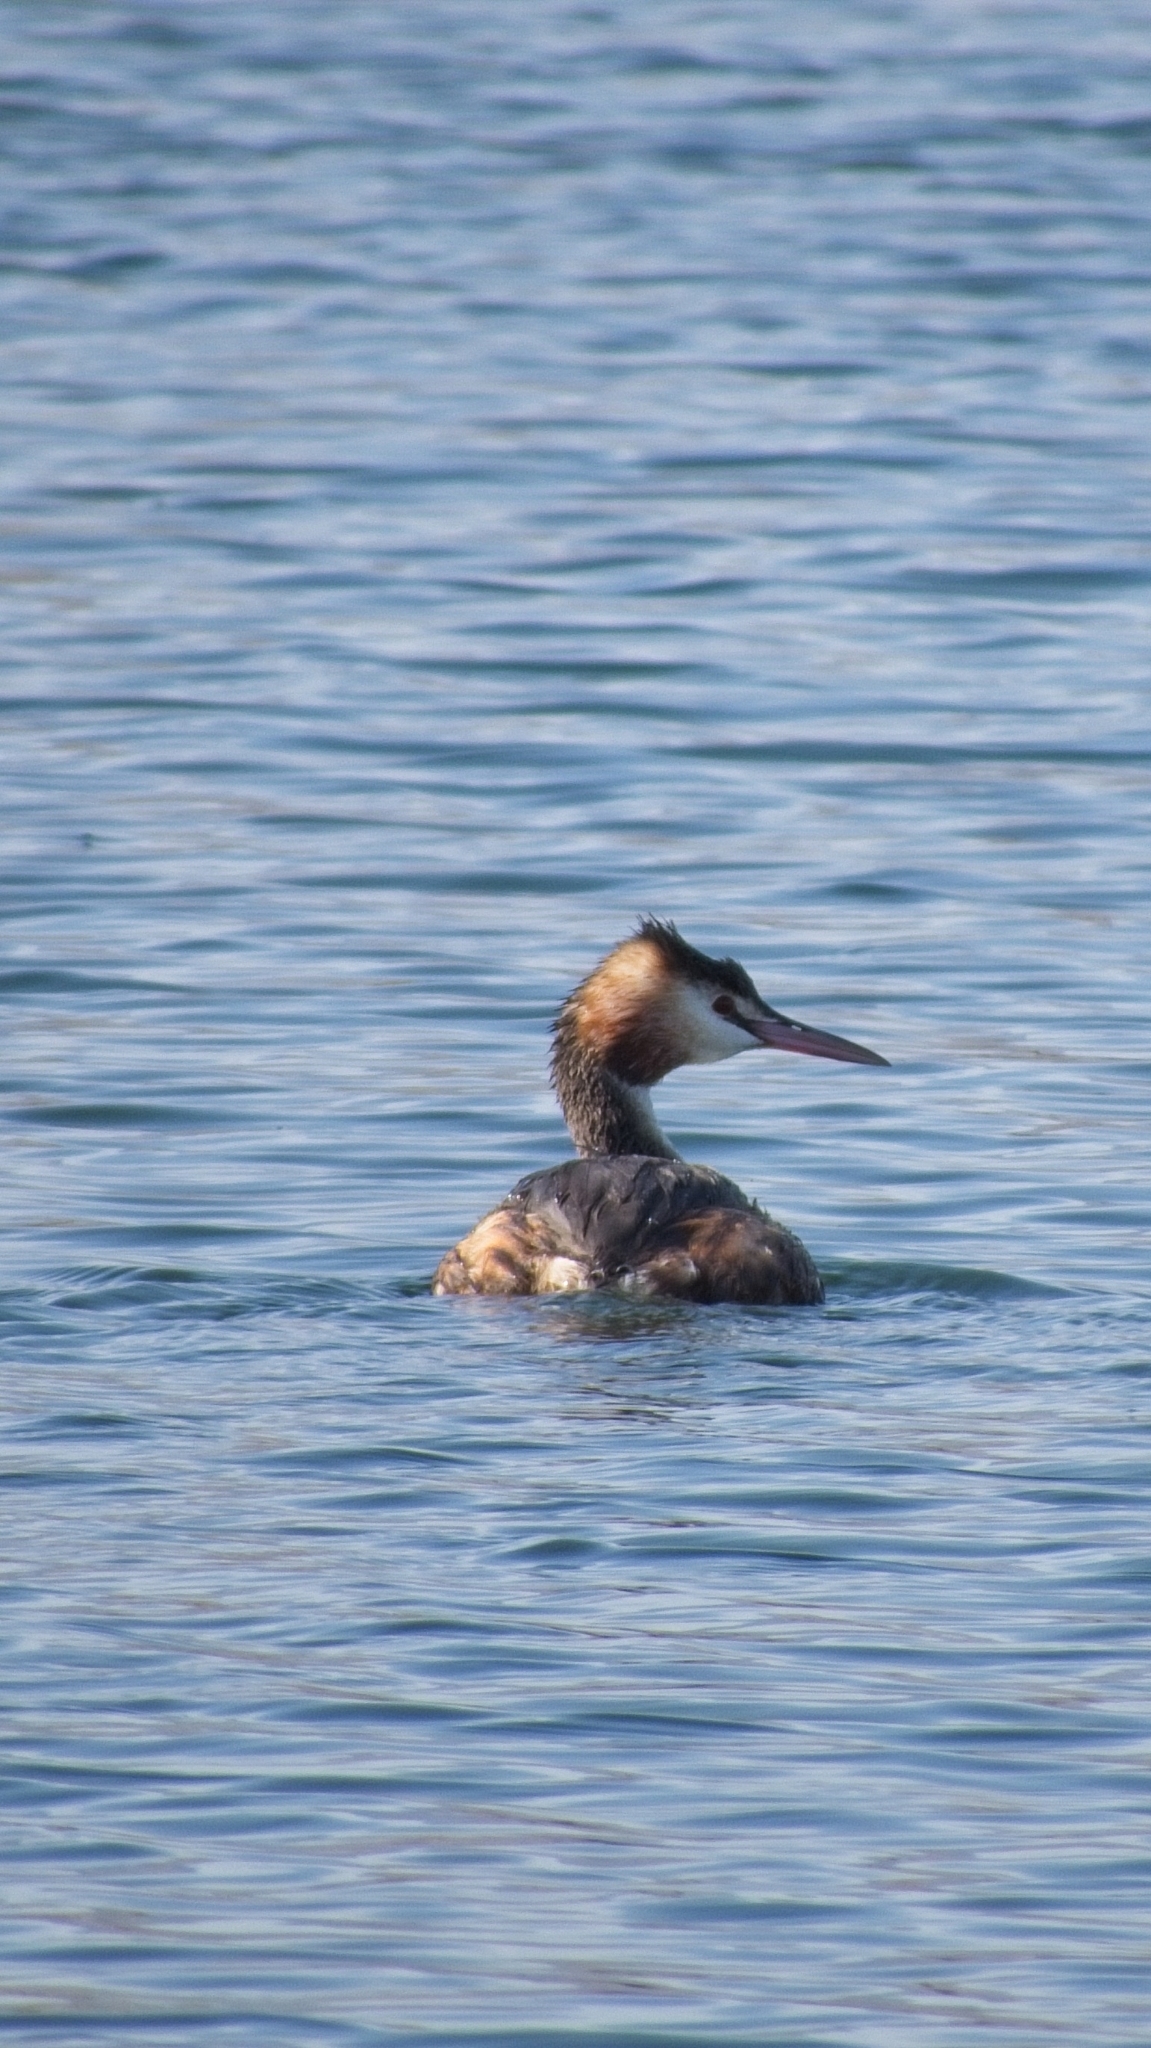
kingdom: Animalia
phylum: Chordata
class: Aves
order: Podicipediformes
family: Podicipedidae
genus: Podiceps
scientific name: Podiceps cristatus
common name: Great crested grebe
